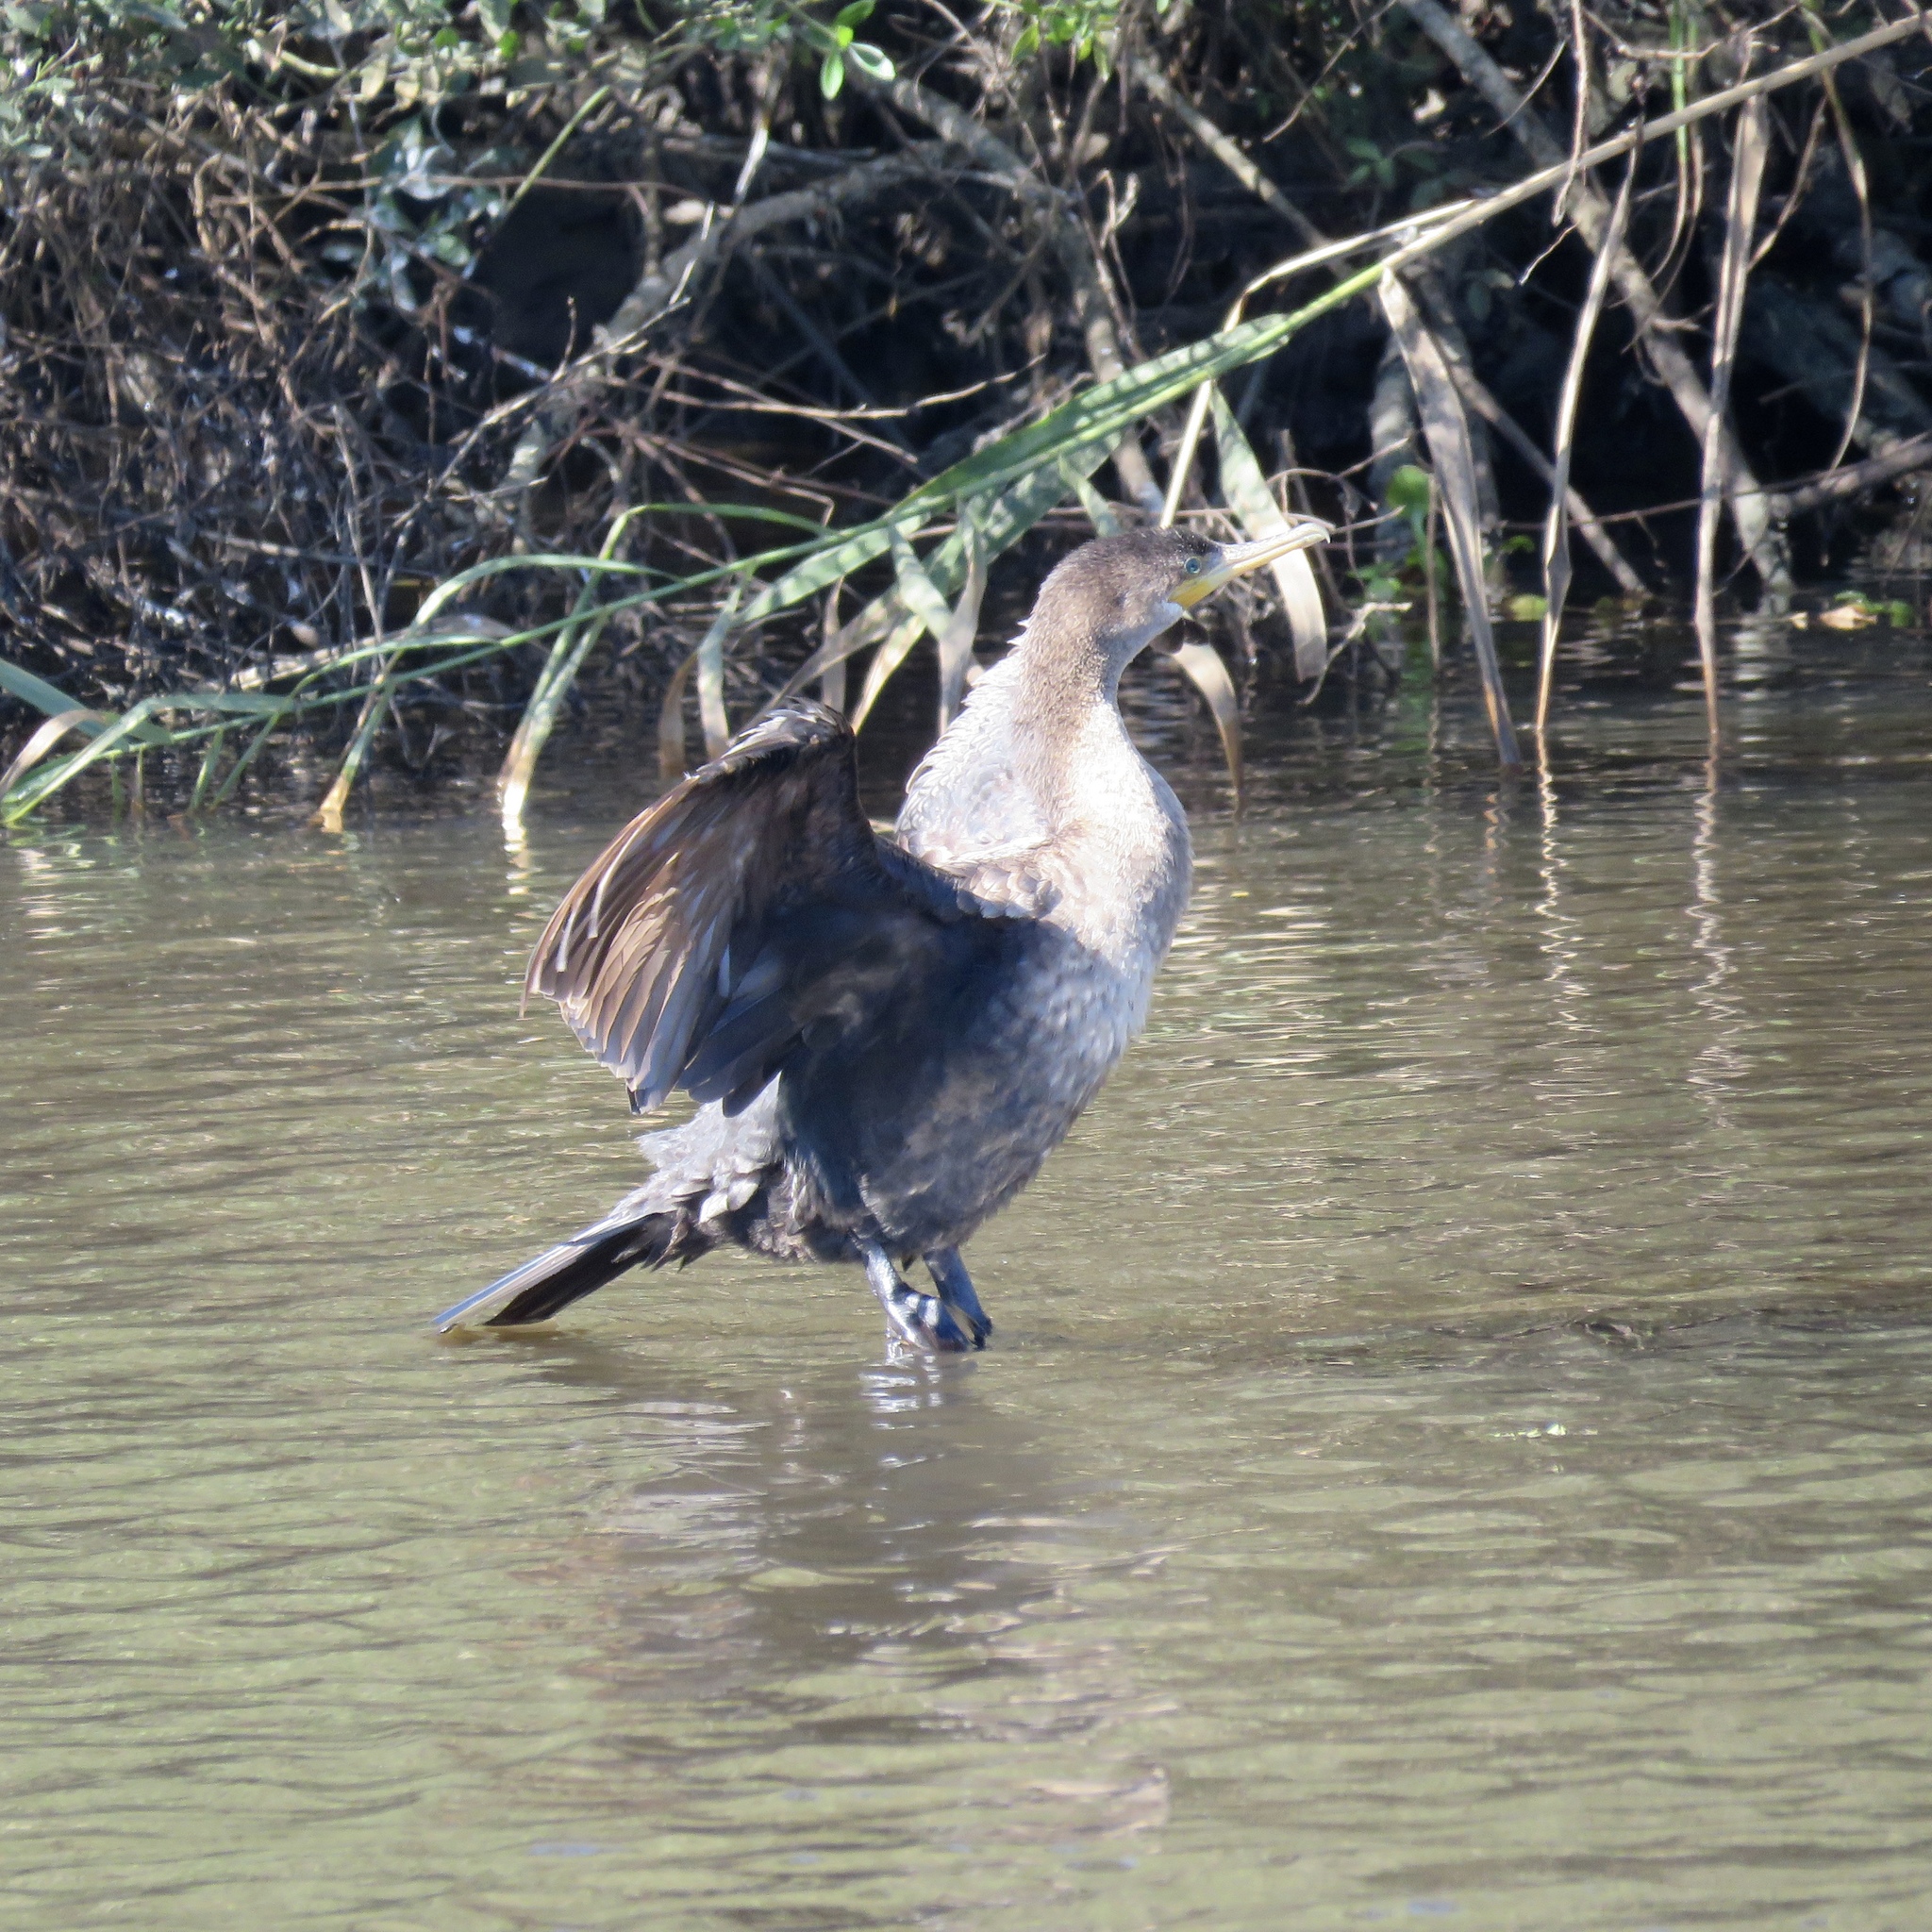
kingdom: Animalia
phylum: Chordata
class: Aves
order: Suliformes
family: Phalacrocoracidae
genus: Phalacrocorax
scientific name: Phalacrocorax brasilianus
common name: Neotropic cormorant
